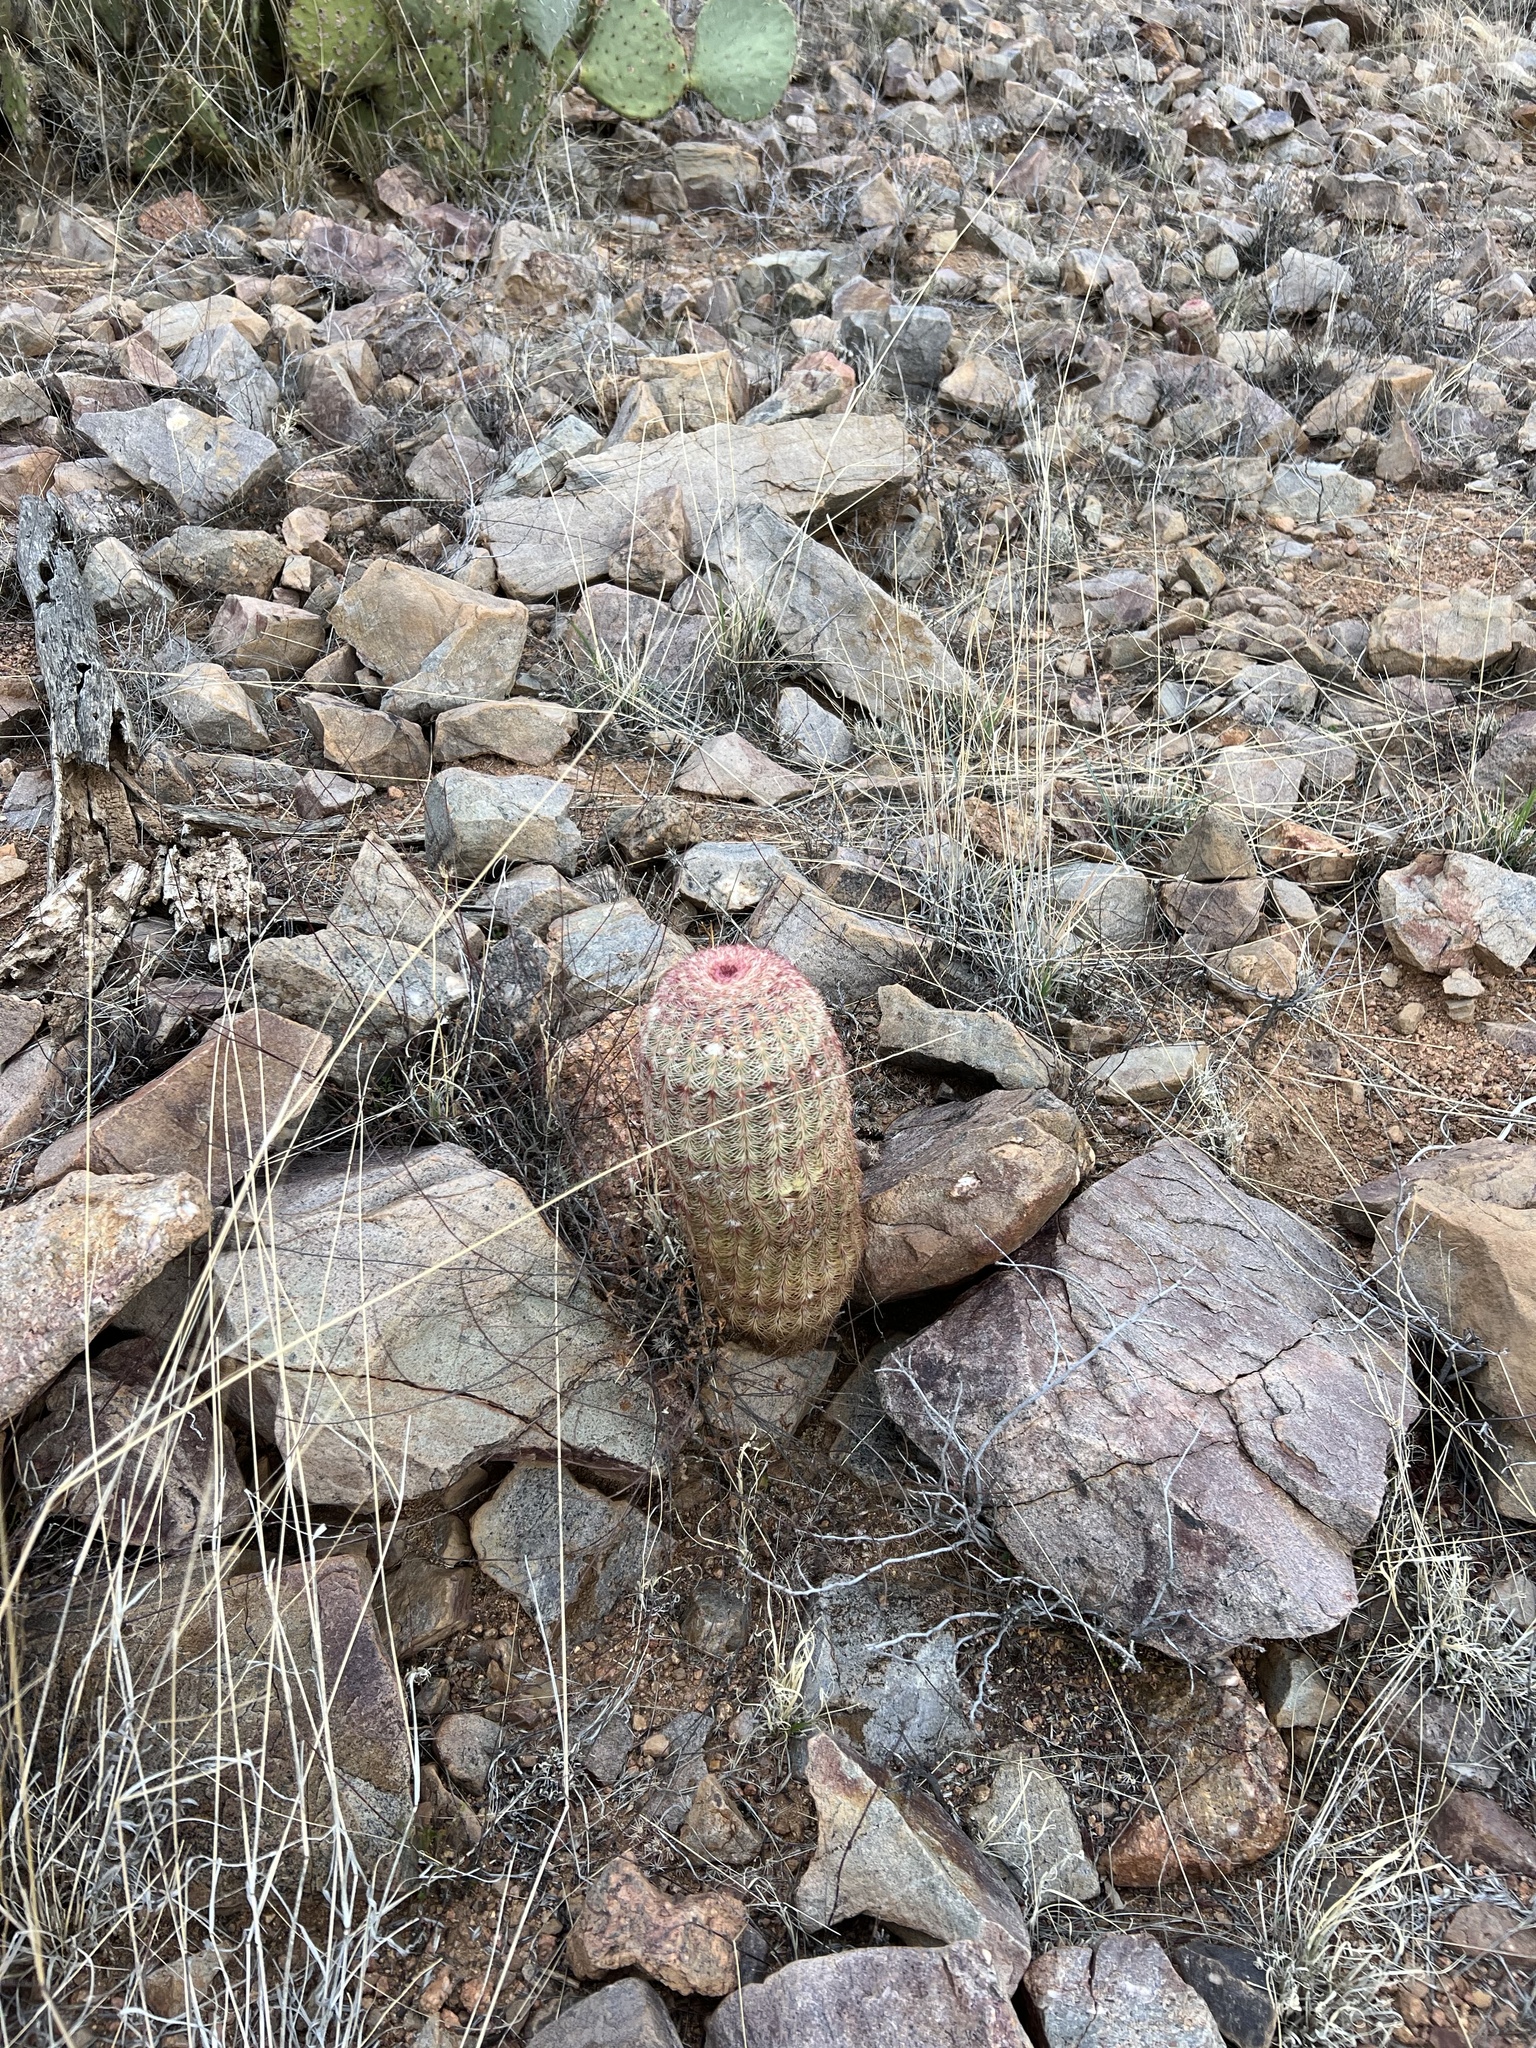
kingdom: Plantae
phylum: Tracheophyta
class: Magnoliopsida
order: Caryophyllales
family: Cactaceae
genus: Echinocereus
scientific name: Echinocereus rigidissimus
